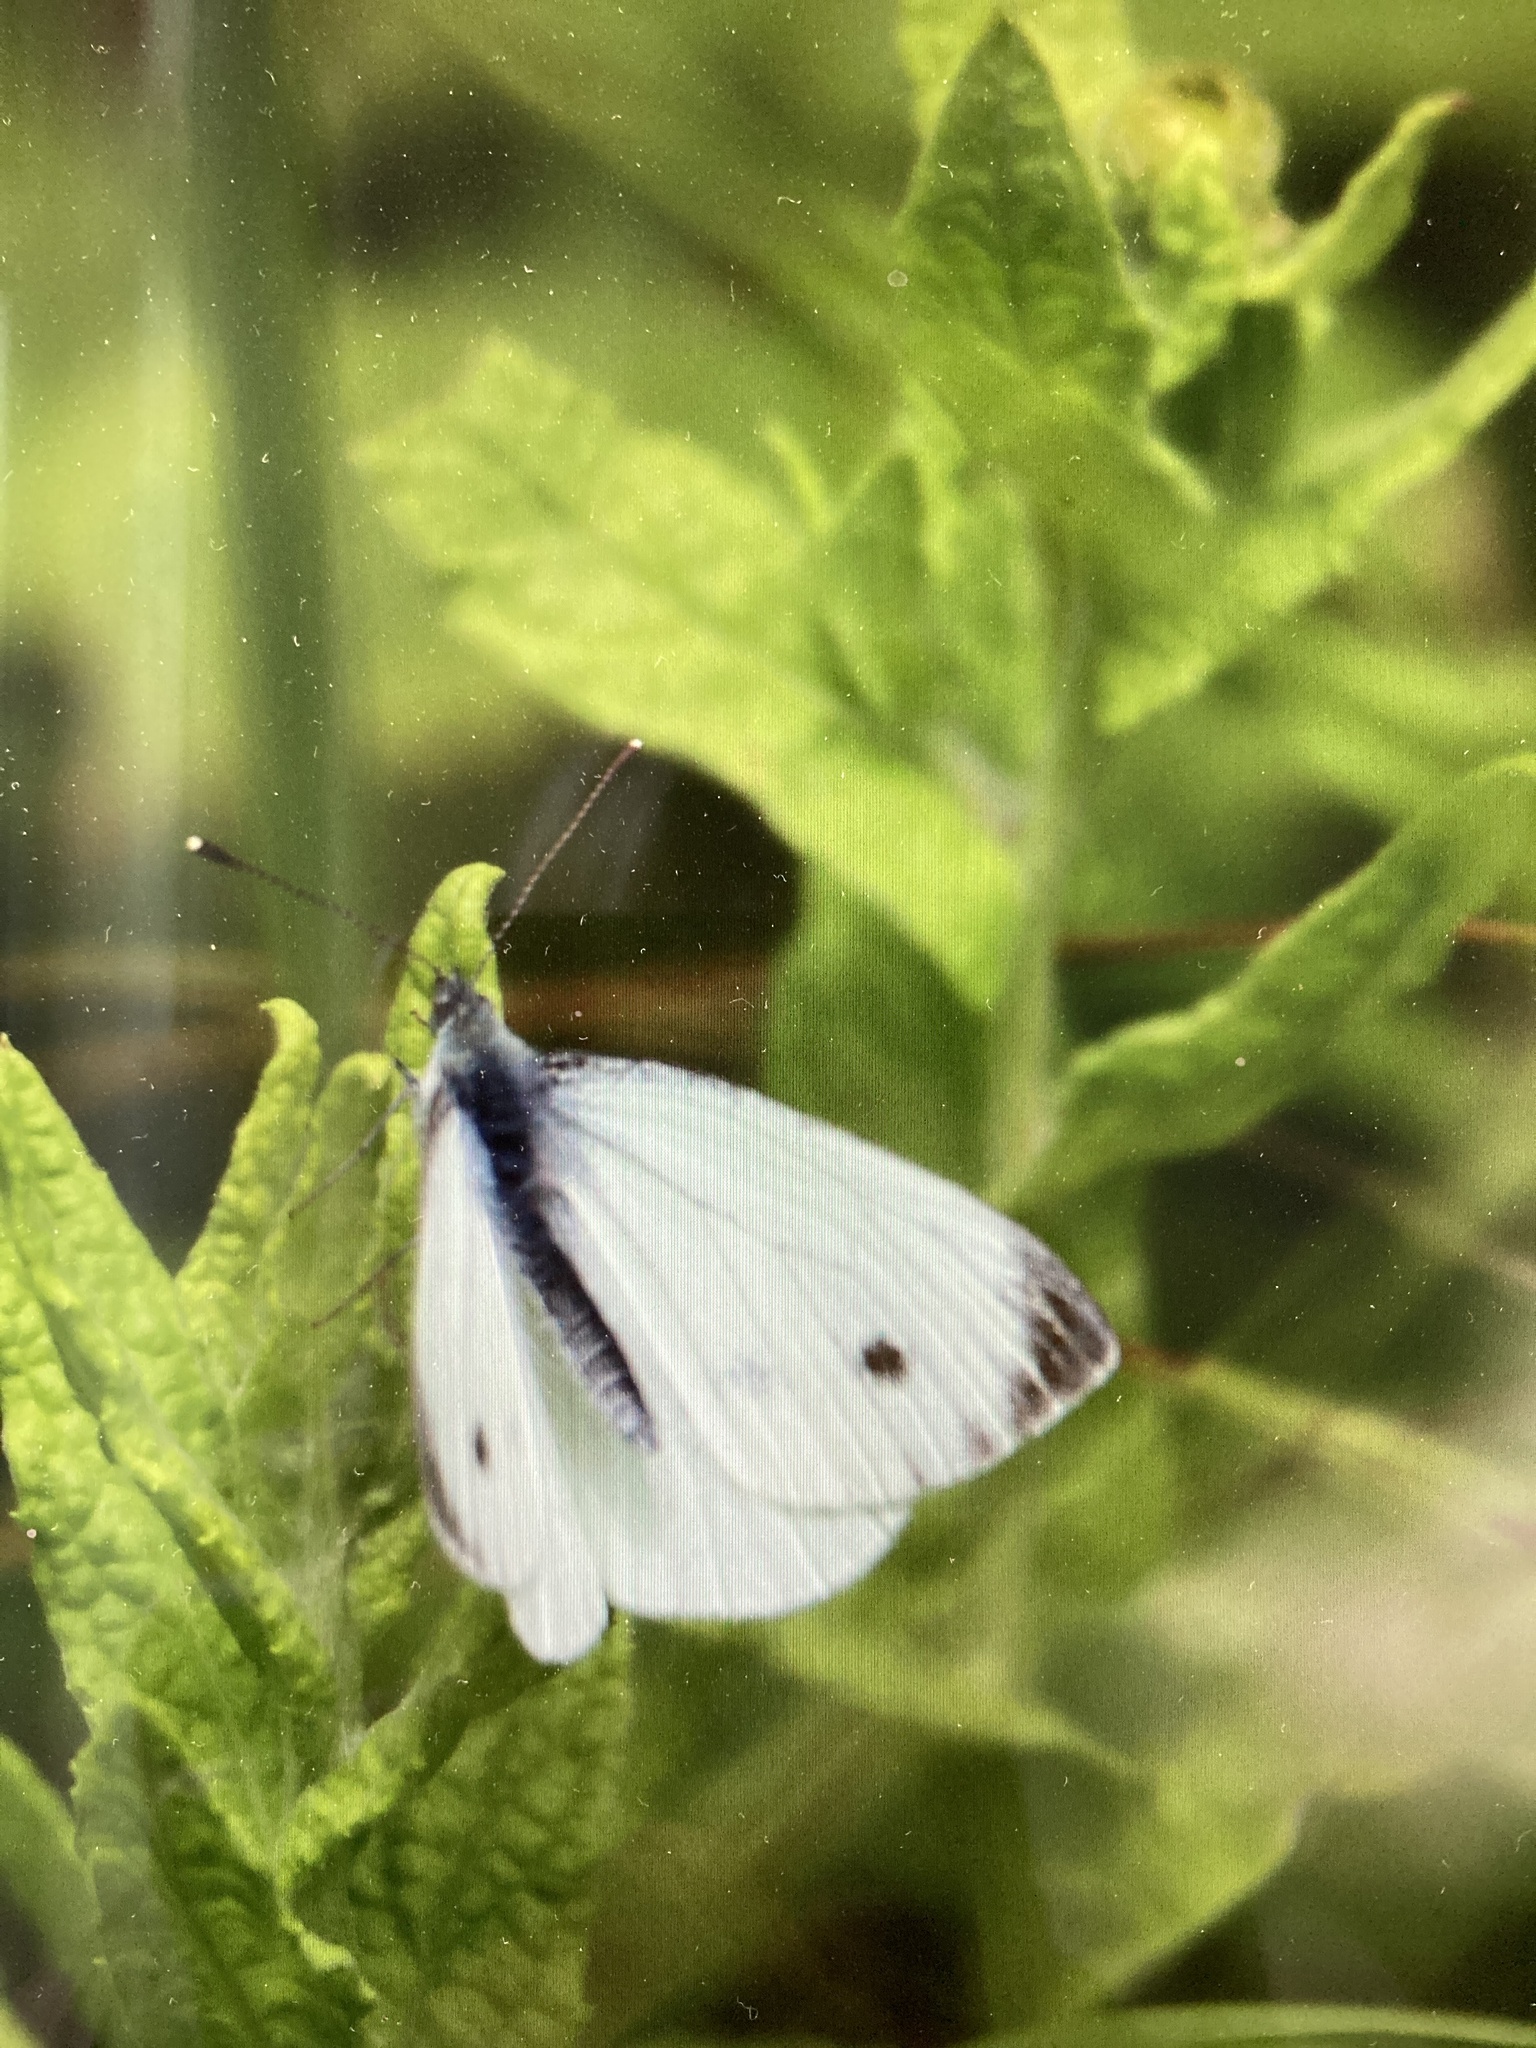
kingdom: Animalia
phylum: Arthropoda
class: Insecta
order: Lepidoptera
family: Pieridae
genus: Pieris
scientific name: Pieris napi
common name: Green-veined white
